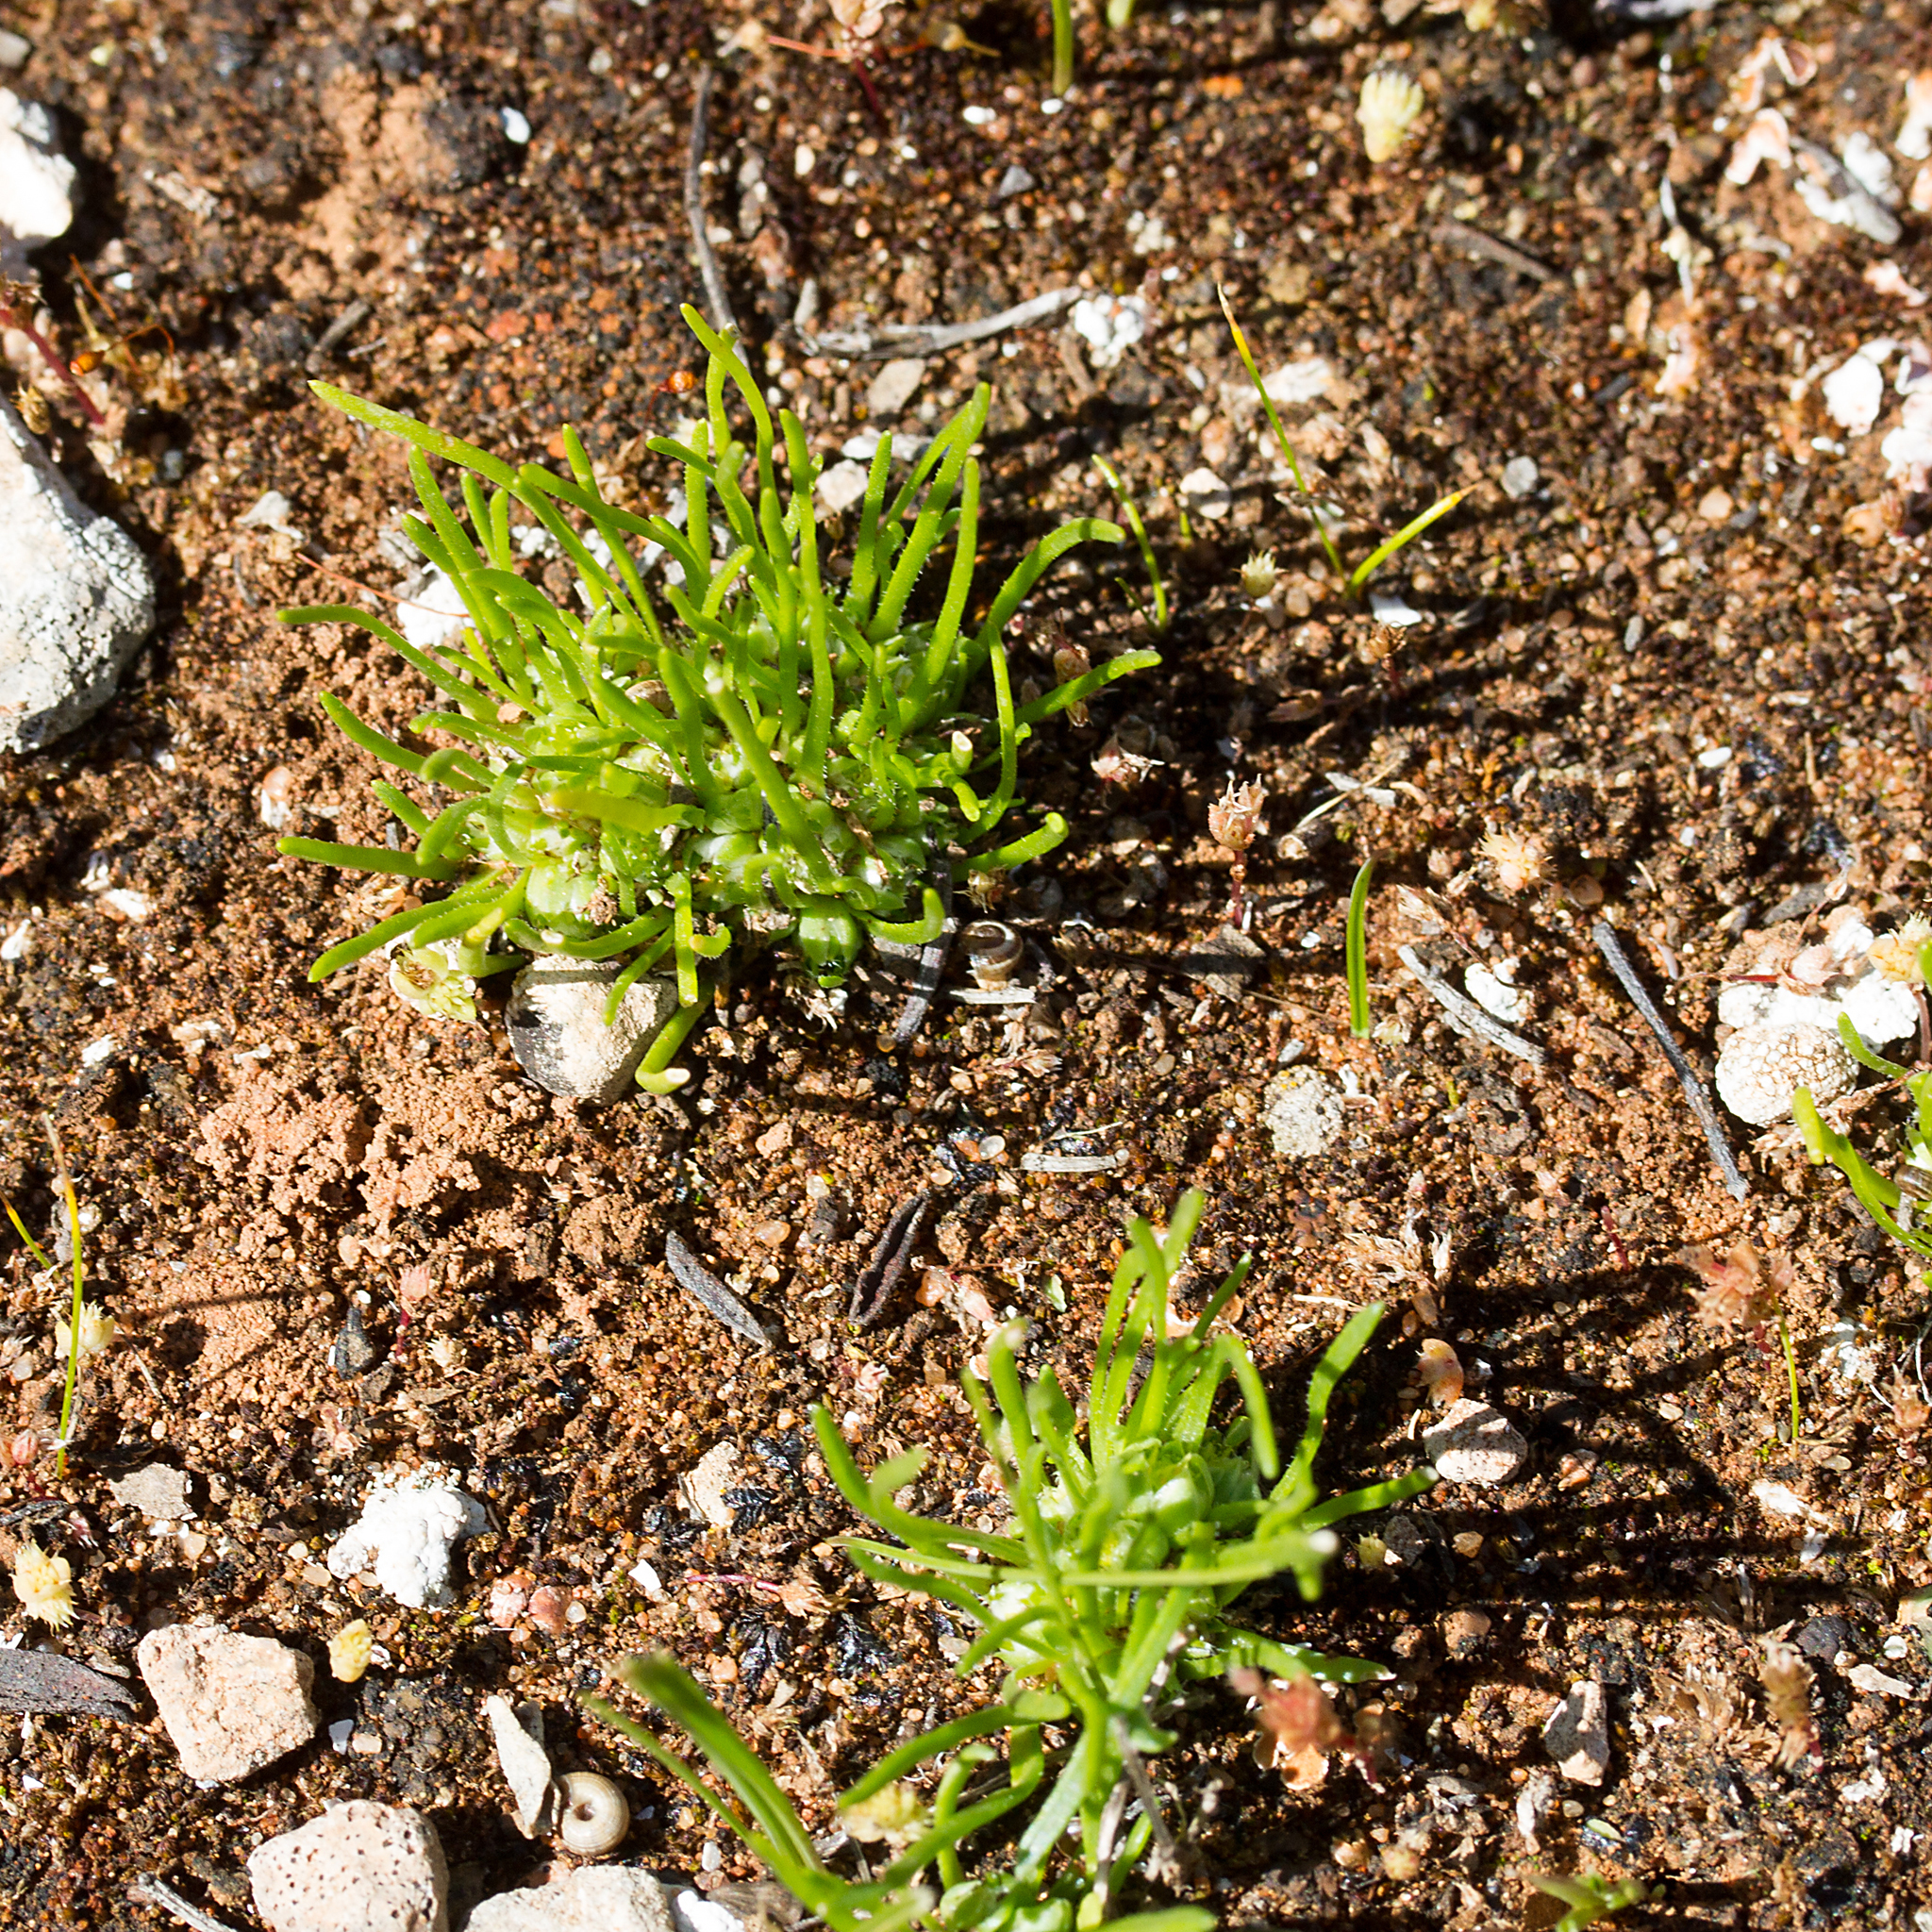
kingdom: Plantae
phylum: Tracheophyta
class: Magnoliopsida
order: Asterales
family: Asteraceae
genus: Isoetopsis
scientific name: Isoetopsis graminifolia
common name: Grass-cushion
